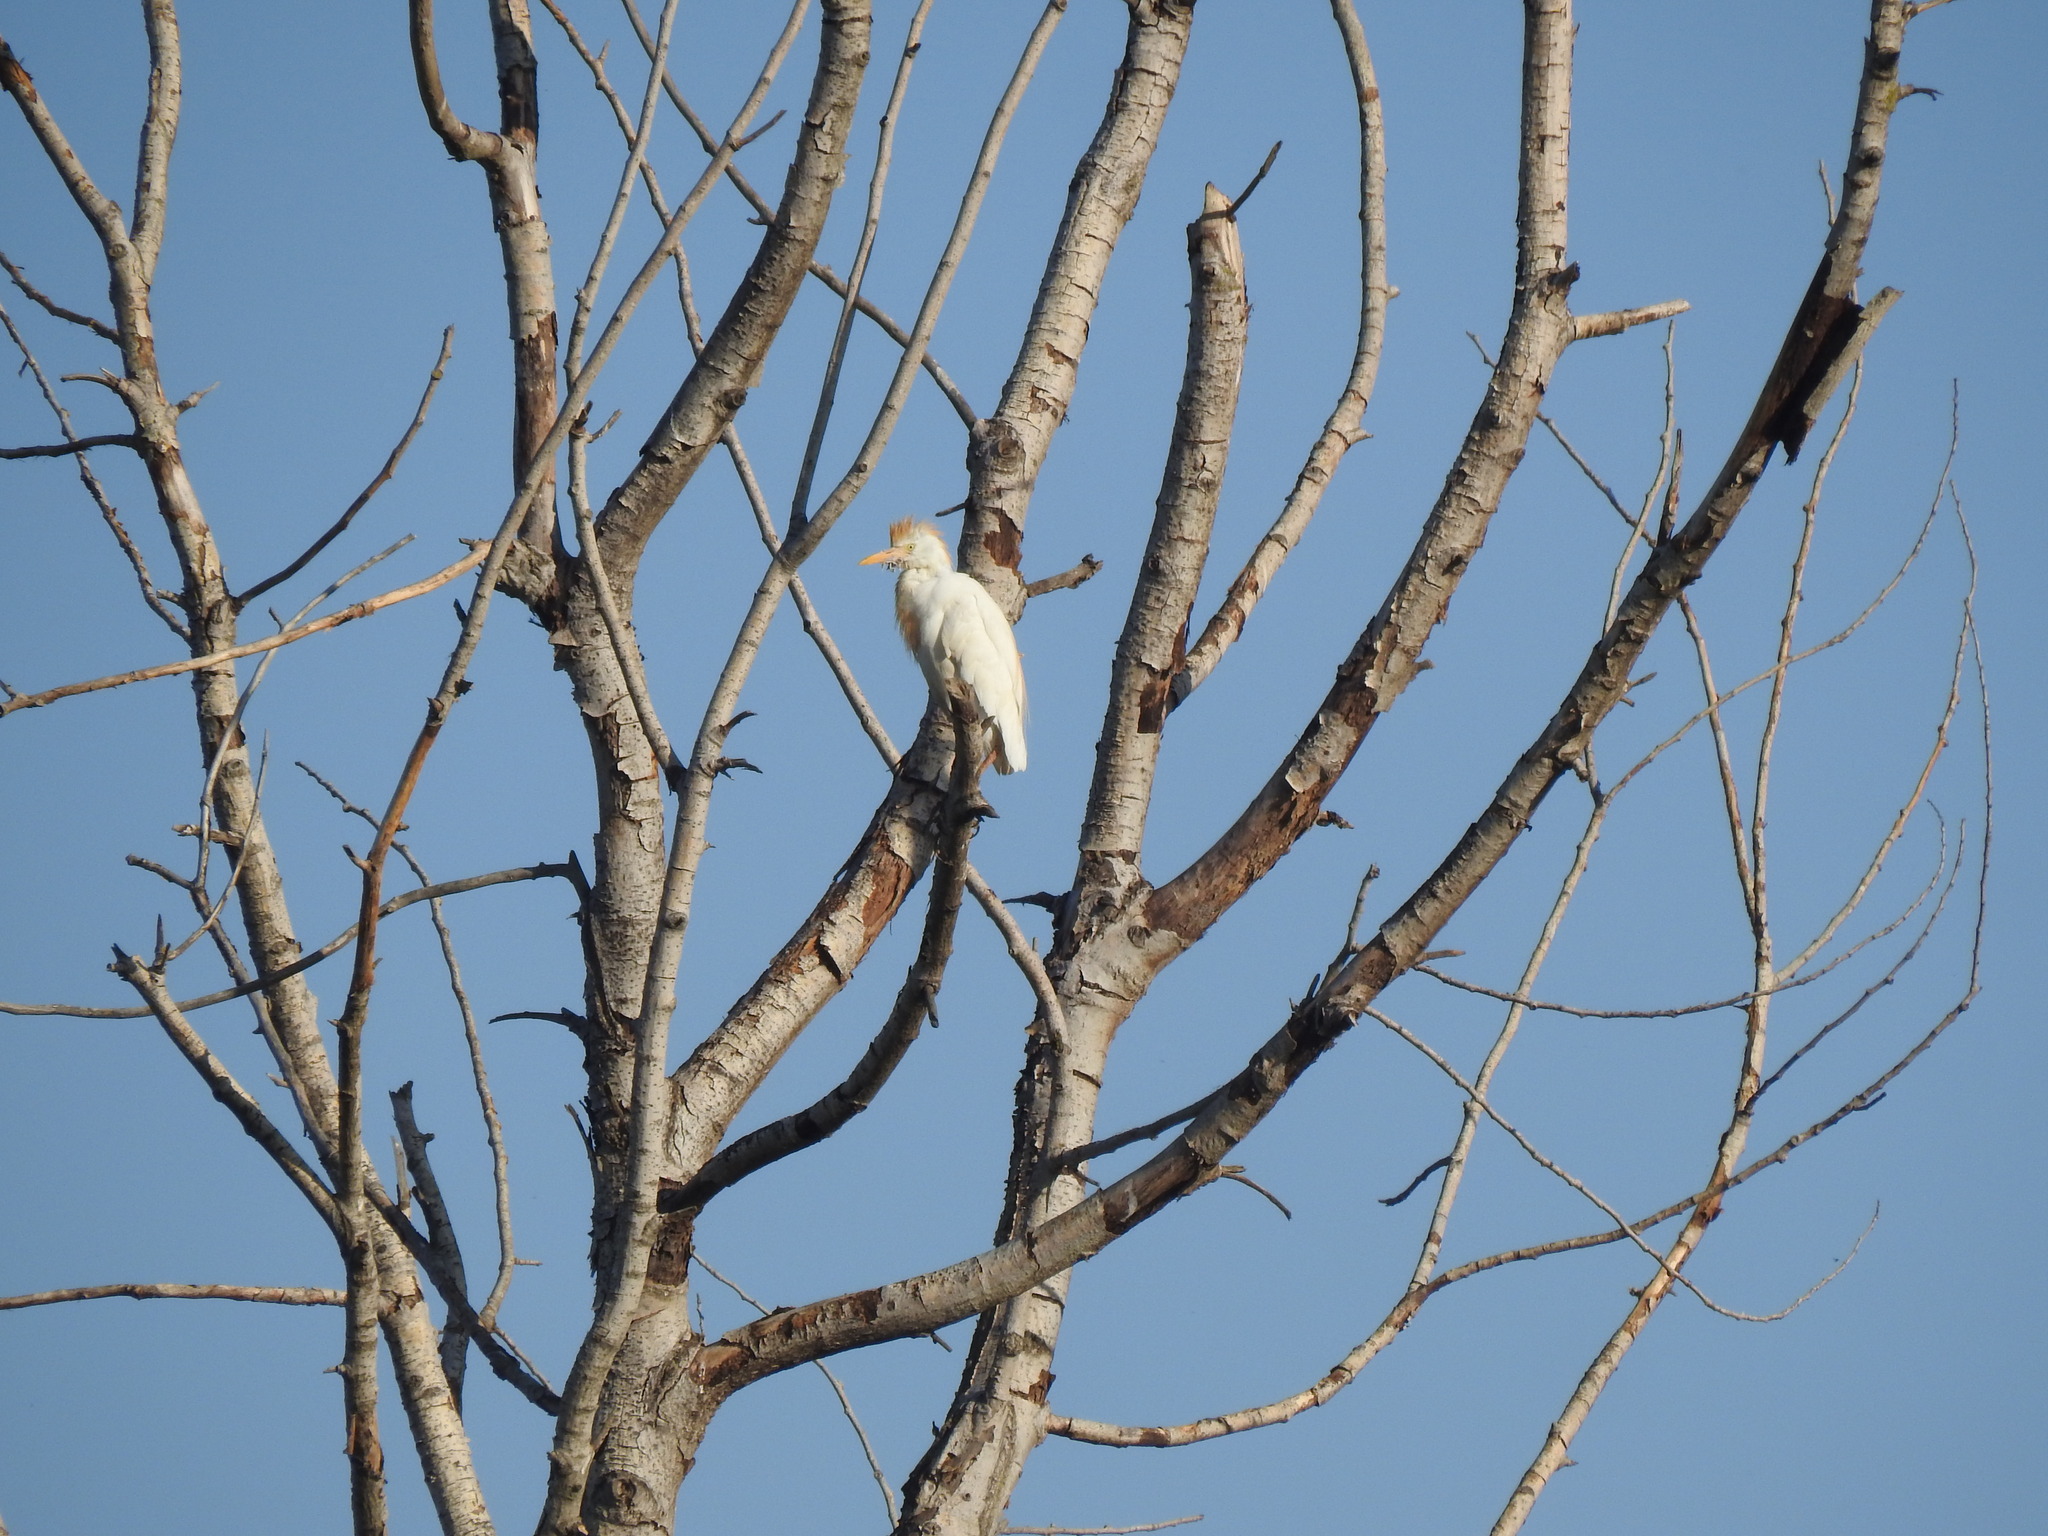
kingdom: Animalia
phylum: Chordata
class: Aves
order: Pelecaniformes
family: Ardeidae
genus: Bubulcus
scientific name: Bubulcus ibis
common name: Cattle egret
